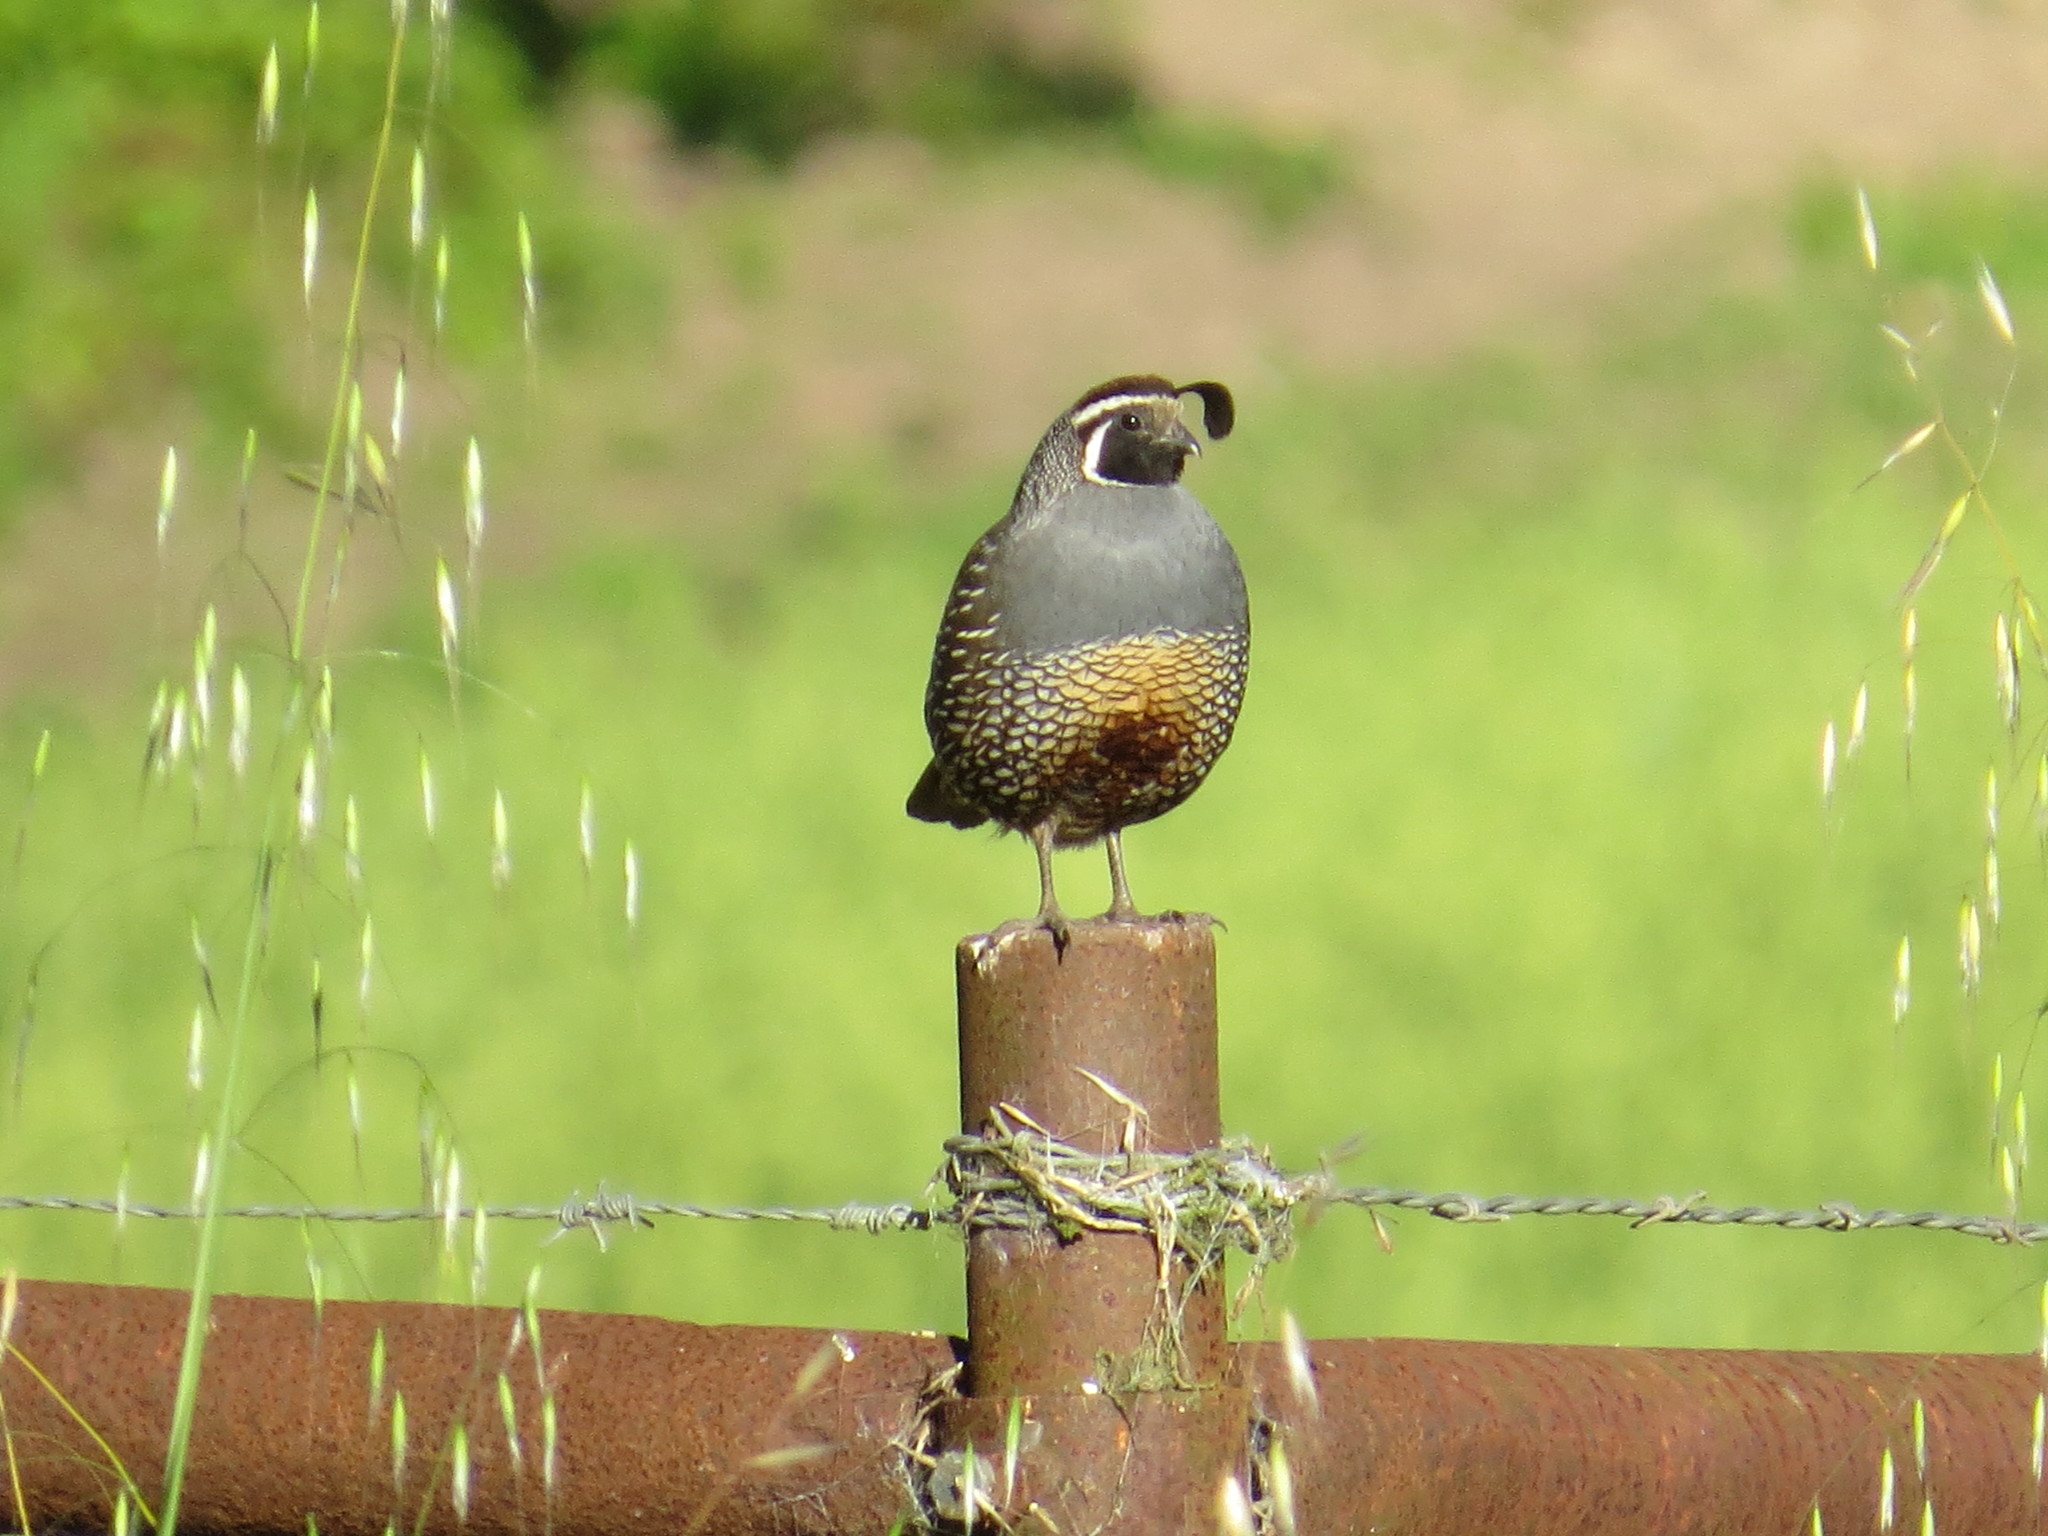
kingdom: Animalia
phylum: Chordata
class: Aves
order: Galliformes
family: Odontophoridae
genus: Callipepla
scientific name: Callipepla californica
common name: California quail
